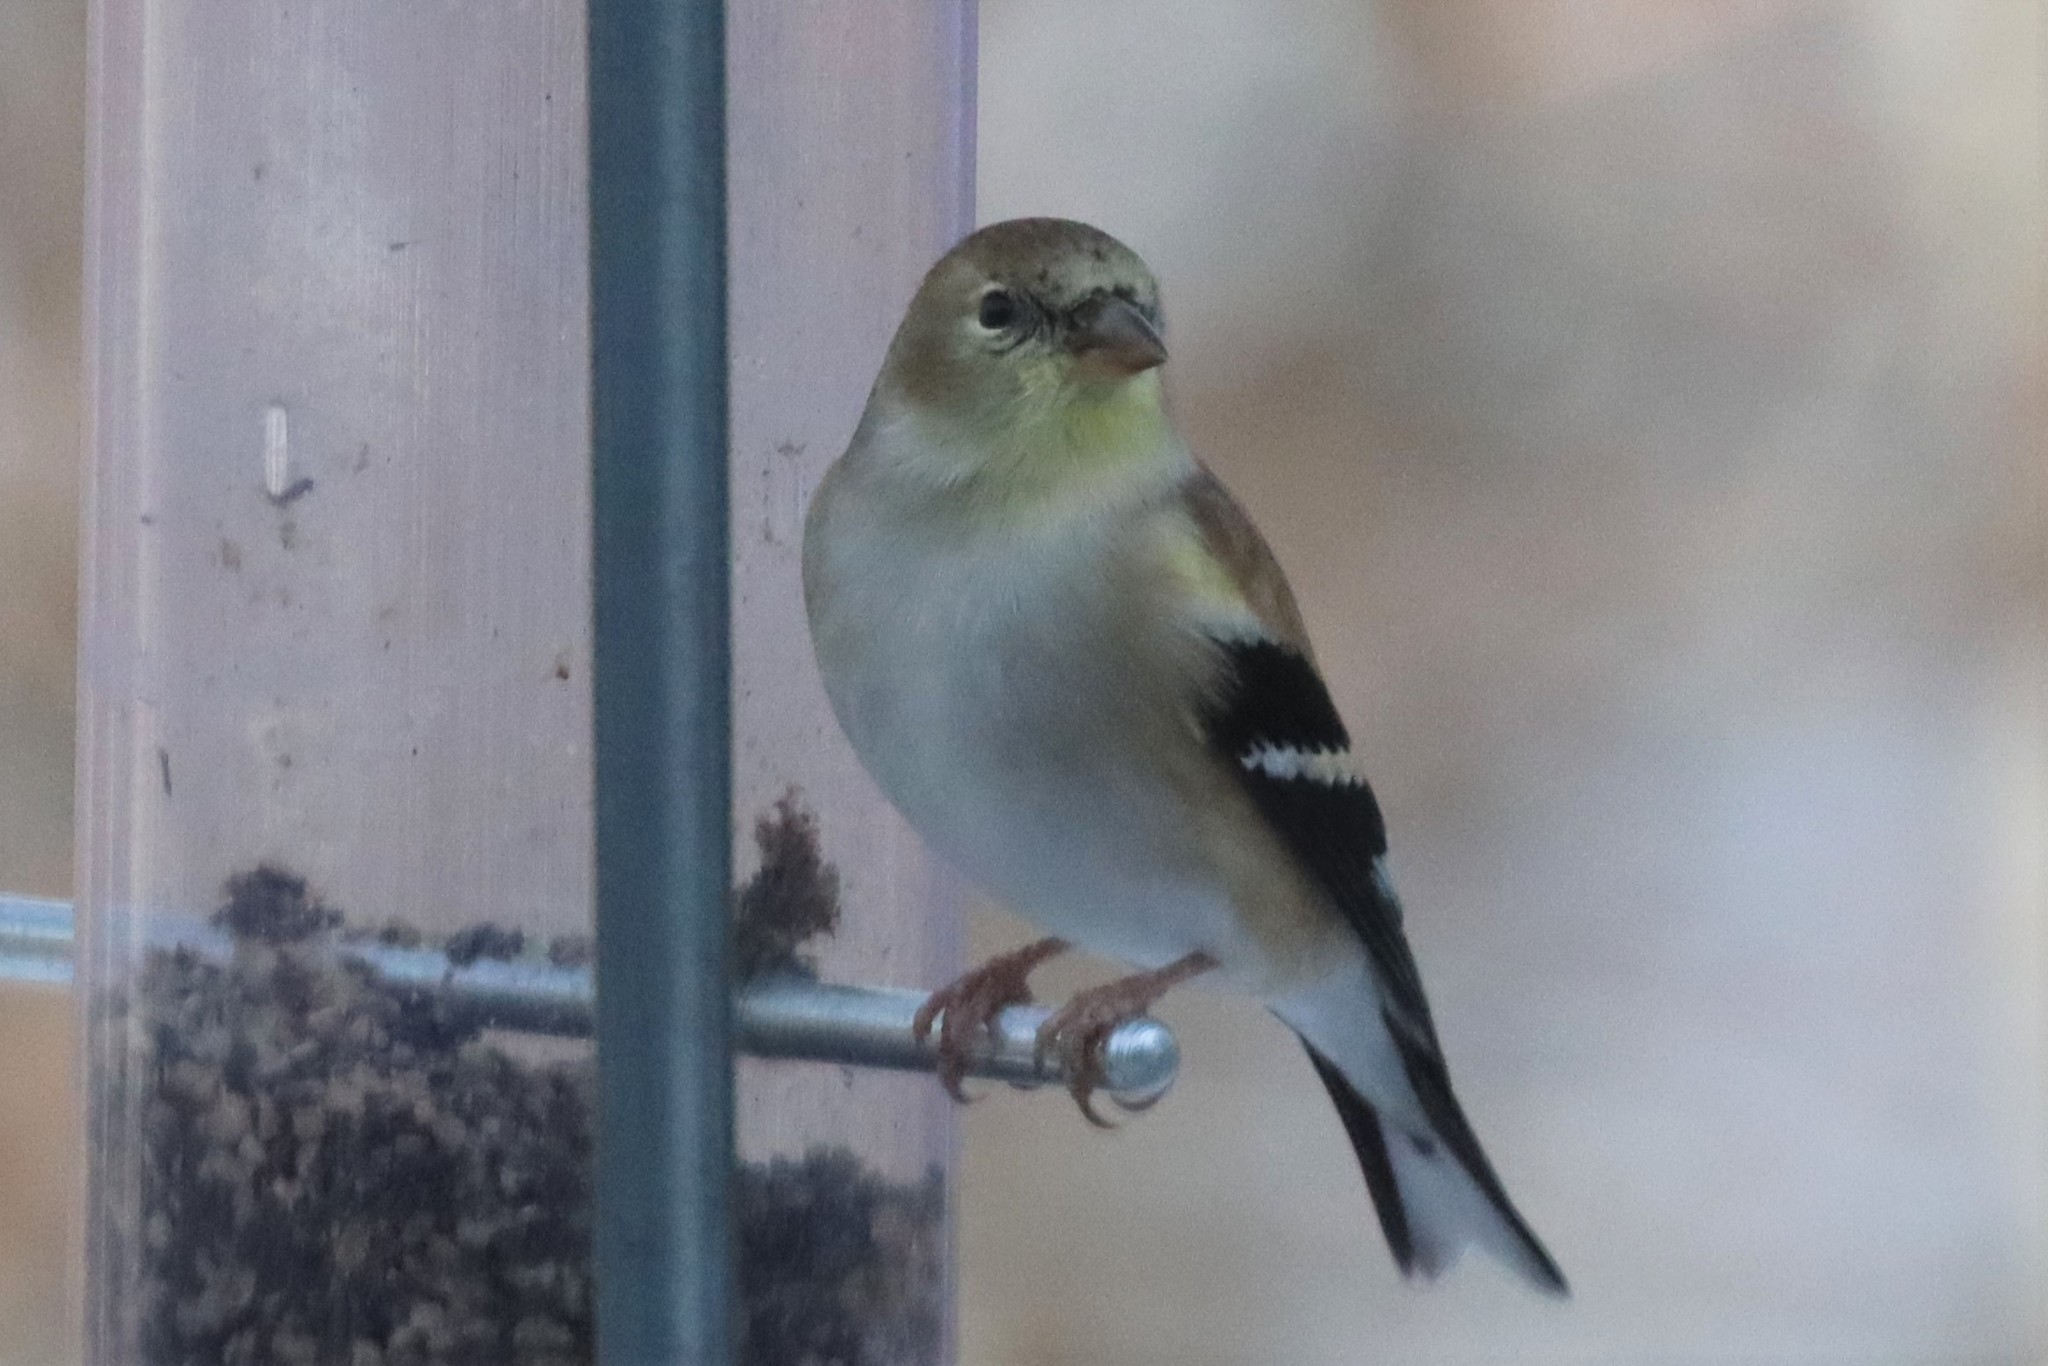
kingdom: Animalia
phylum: Chordata
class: Aves
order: Passeriformes
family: Fringillidae
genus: Spinus
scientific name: Spinus tristis
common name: American goldfinch
